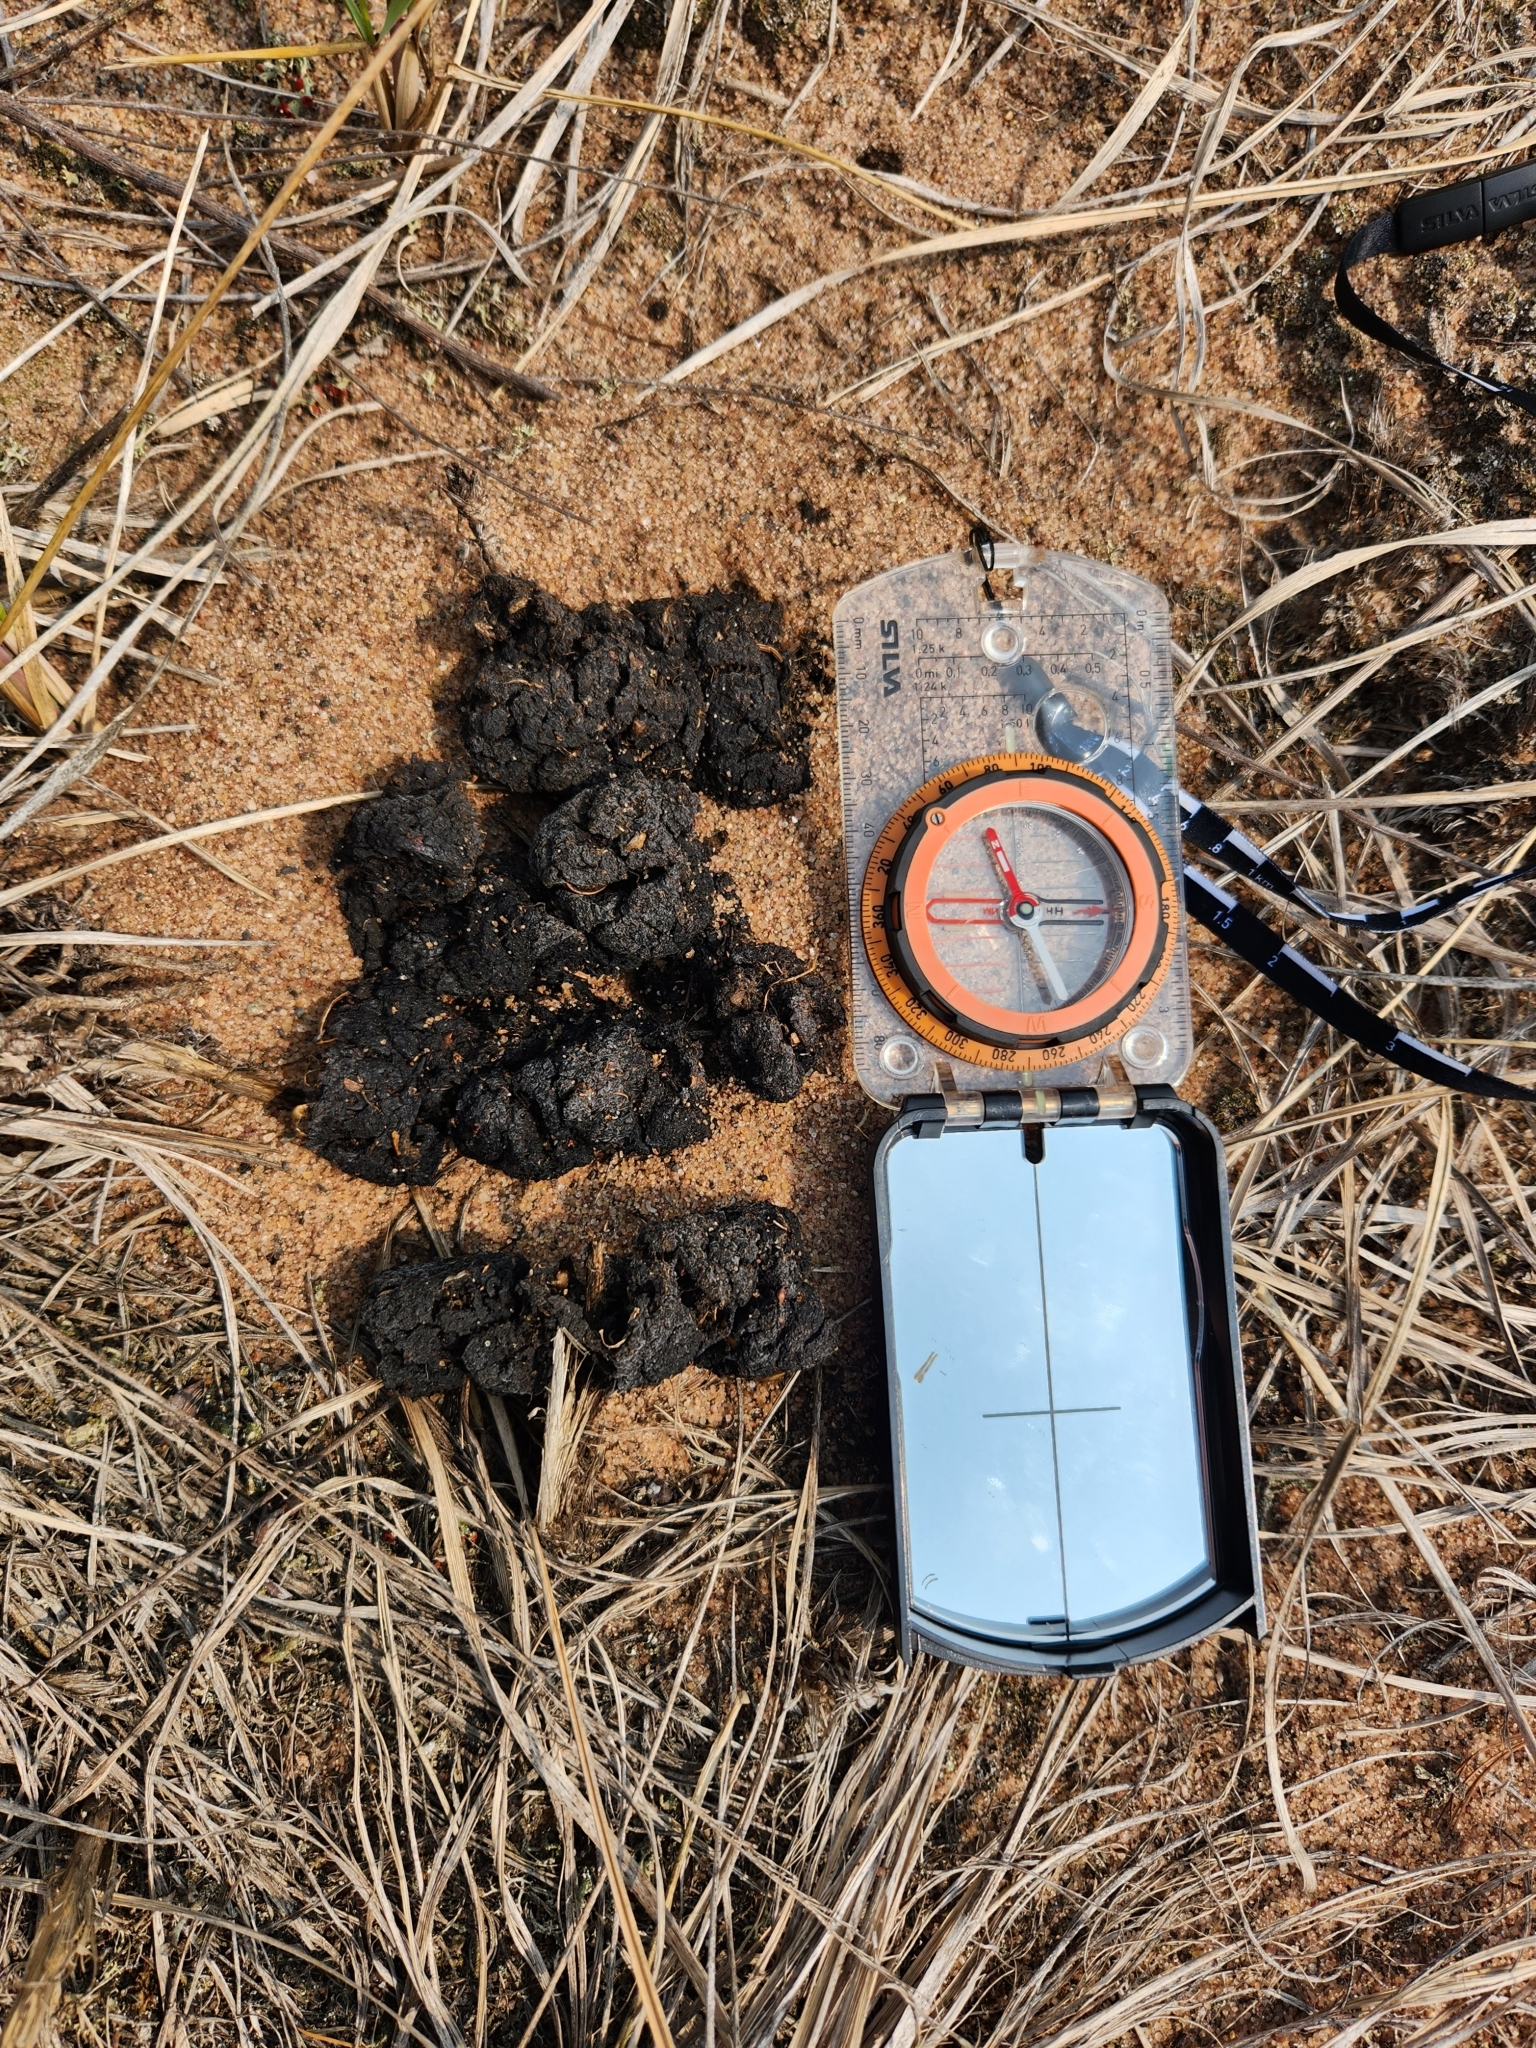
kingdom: Animalia
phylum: Chordata
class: Mammalia
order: Carnivora
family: Ursidae
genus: Ursus
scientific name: Ursus americanus
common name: American black bear
